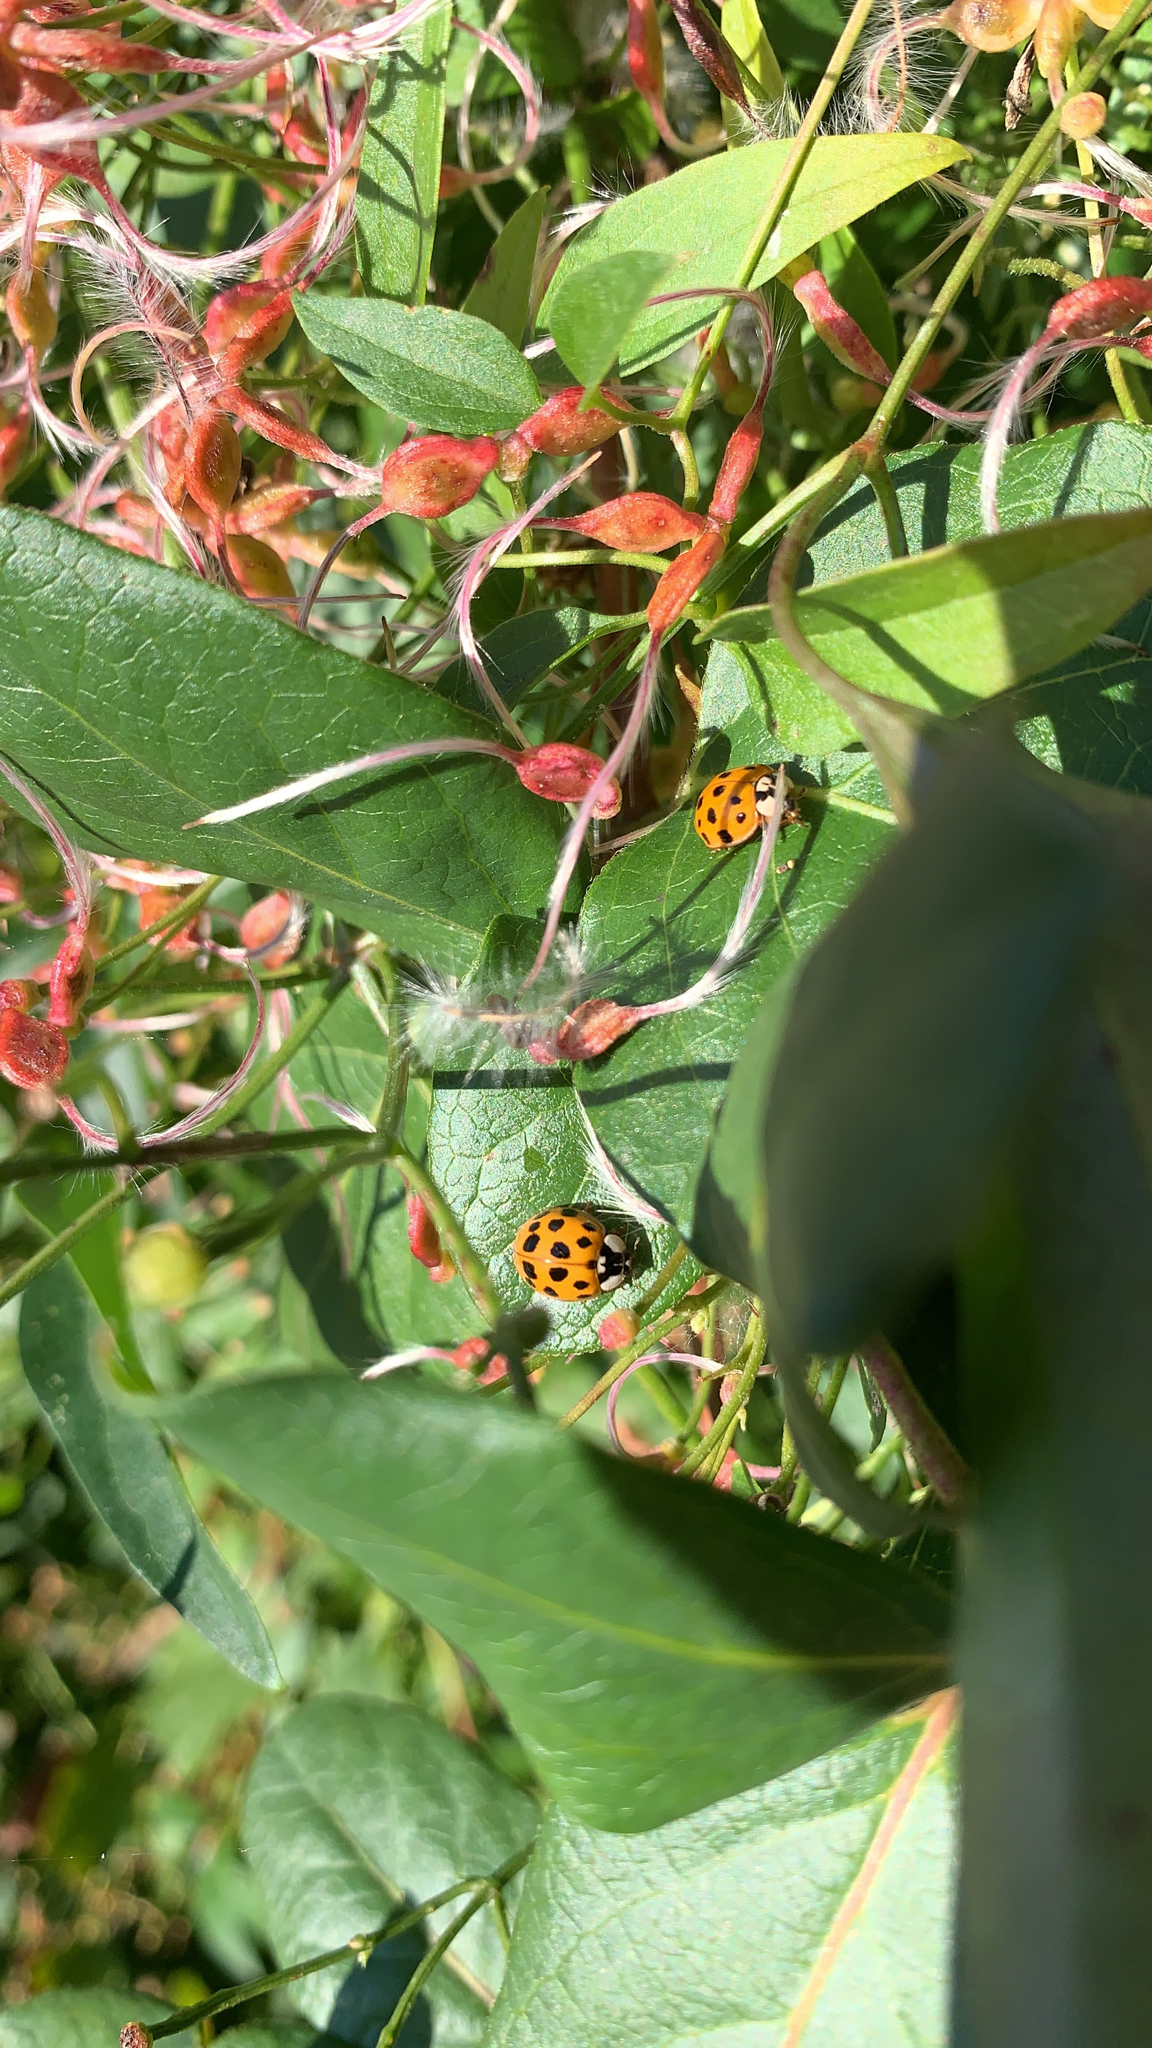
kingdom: Animalia
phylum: Arthropoda
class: Insecta
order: Coleoptera
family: Coccinellidae
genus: Harmonia
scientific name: Harmonia axyridis
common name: Harlequin ladybird
